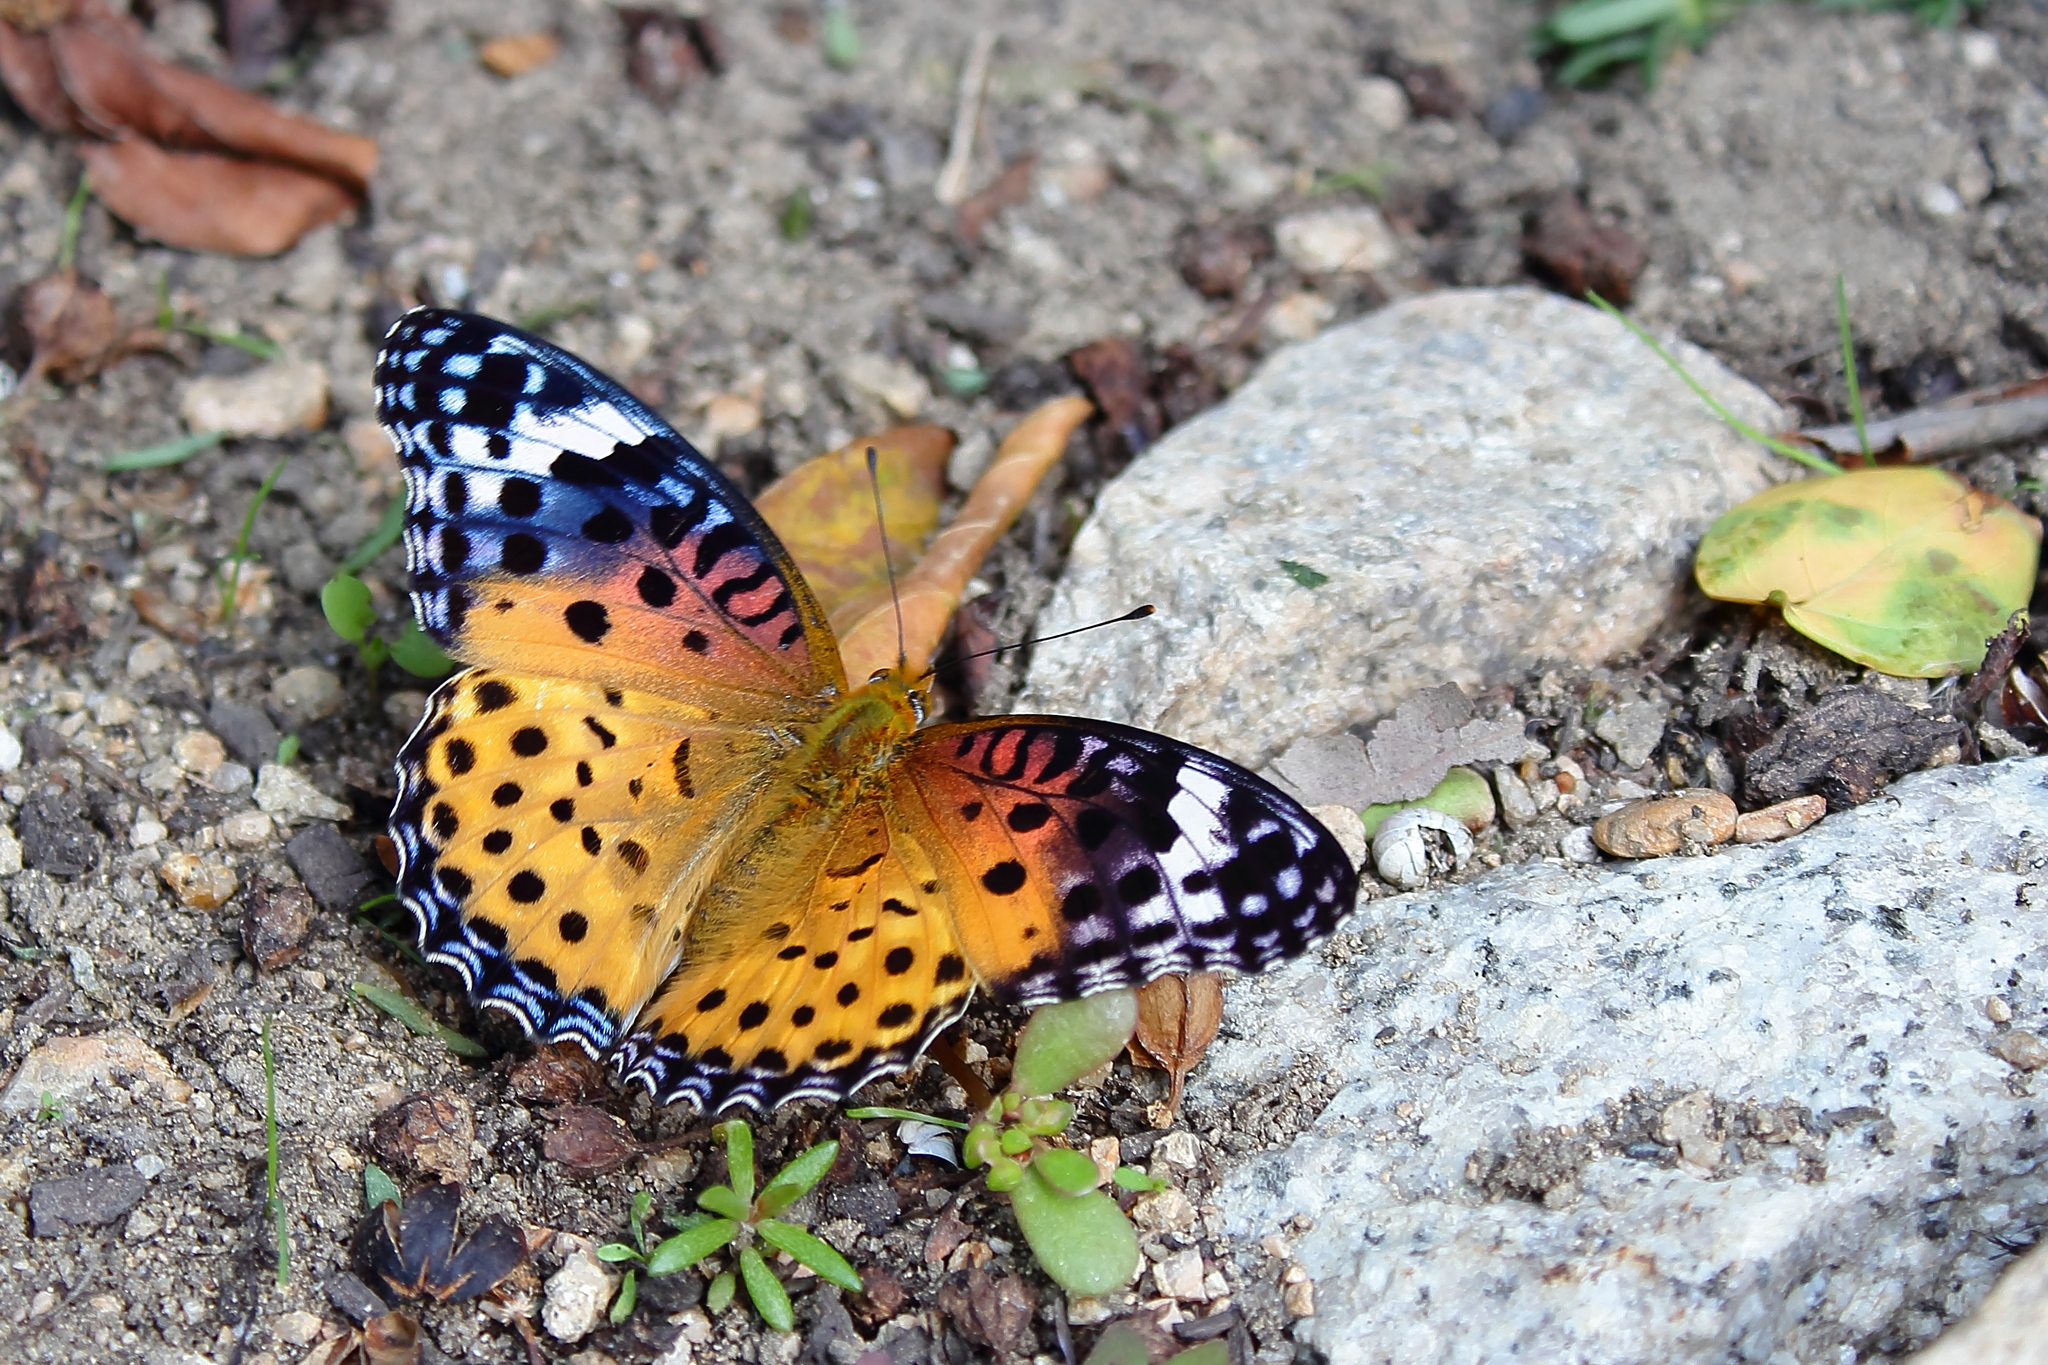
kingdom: Animalia
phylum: Arthropoda
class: Insecta
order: Lepidoptera
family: Nymphalidae
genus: Argynnis
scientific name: Argynnis hyperbius
